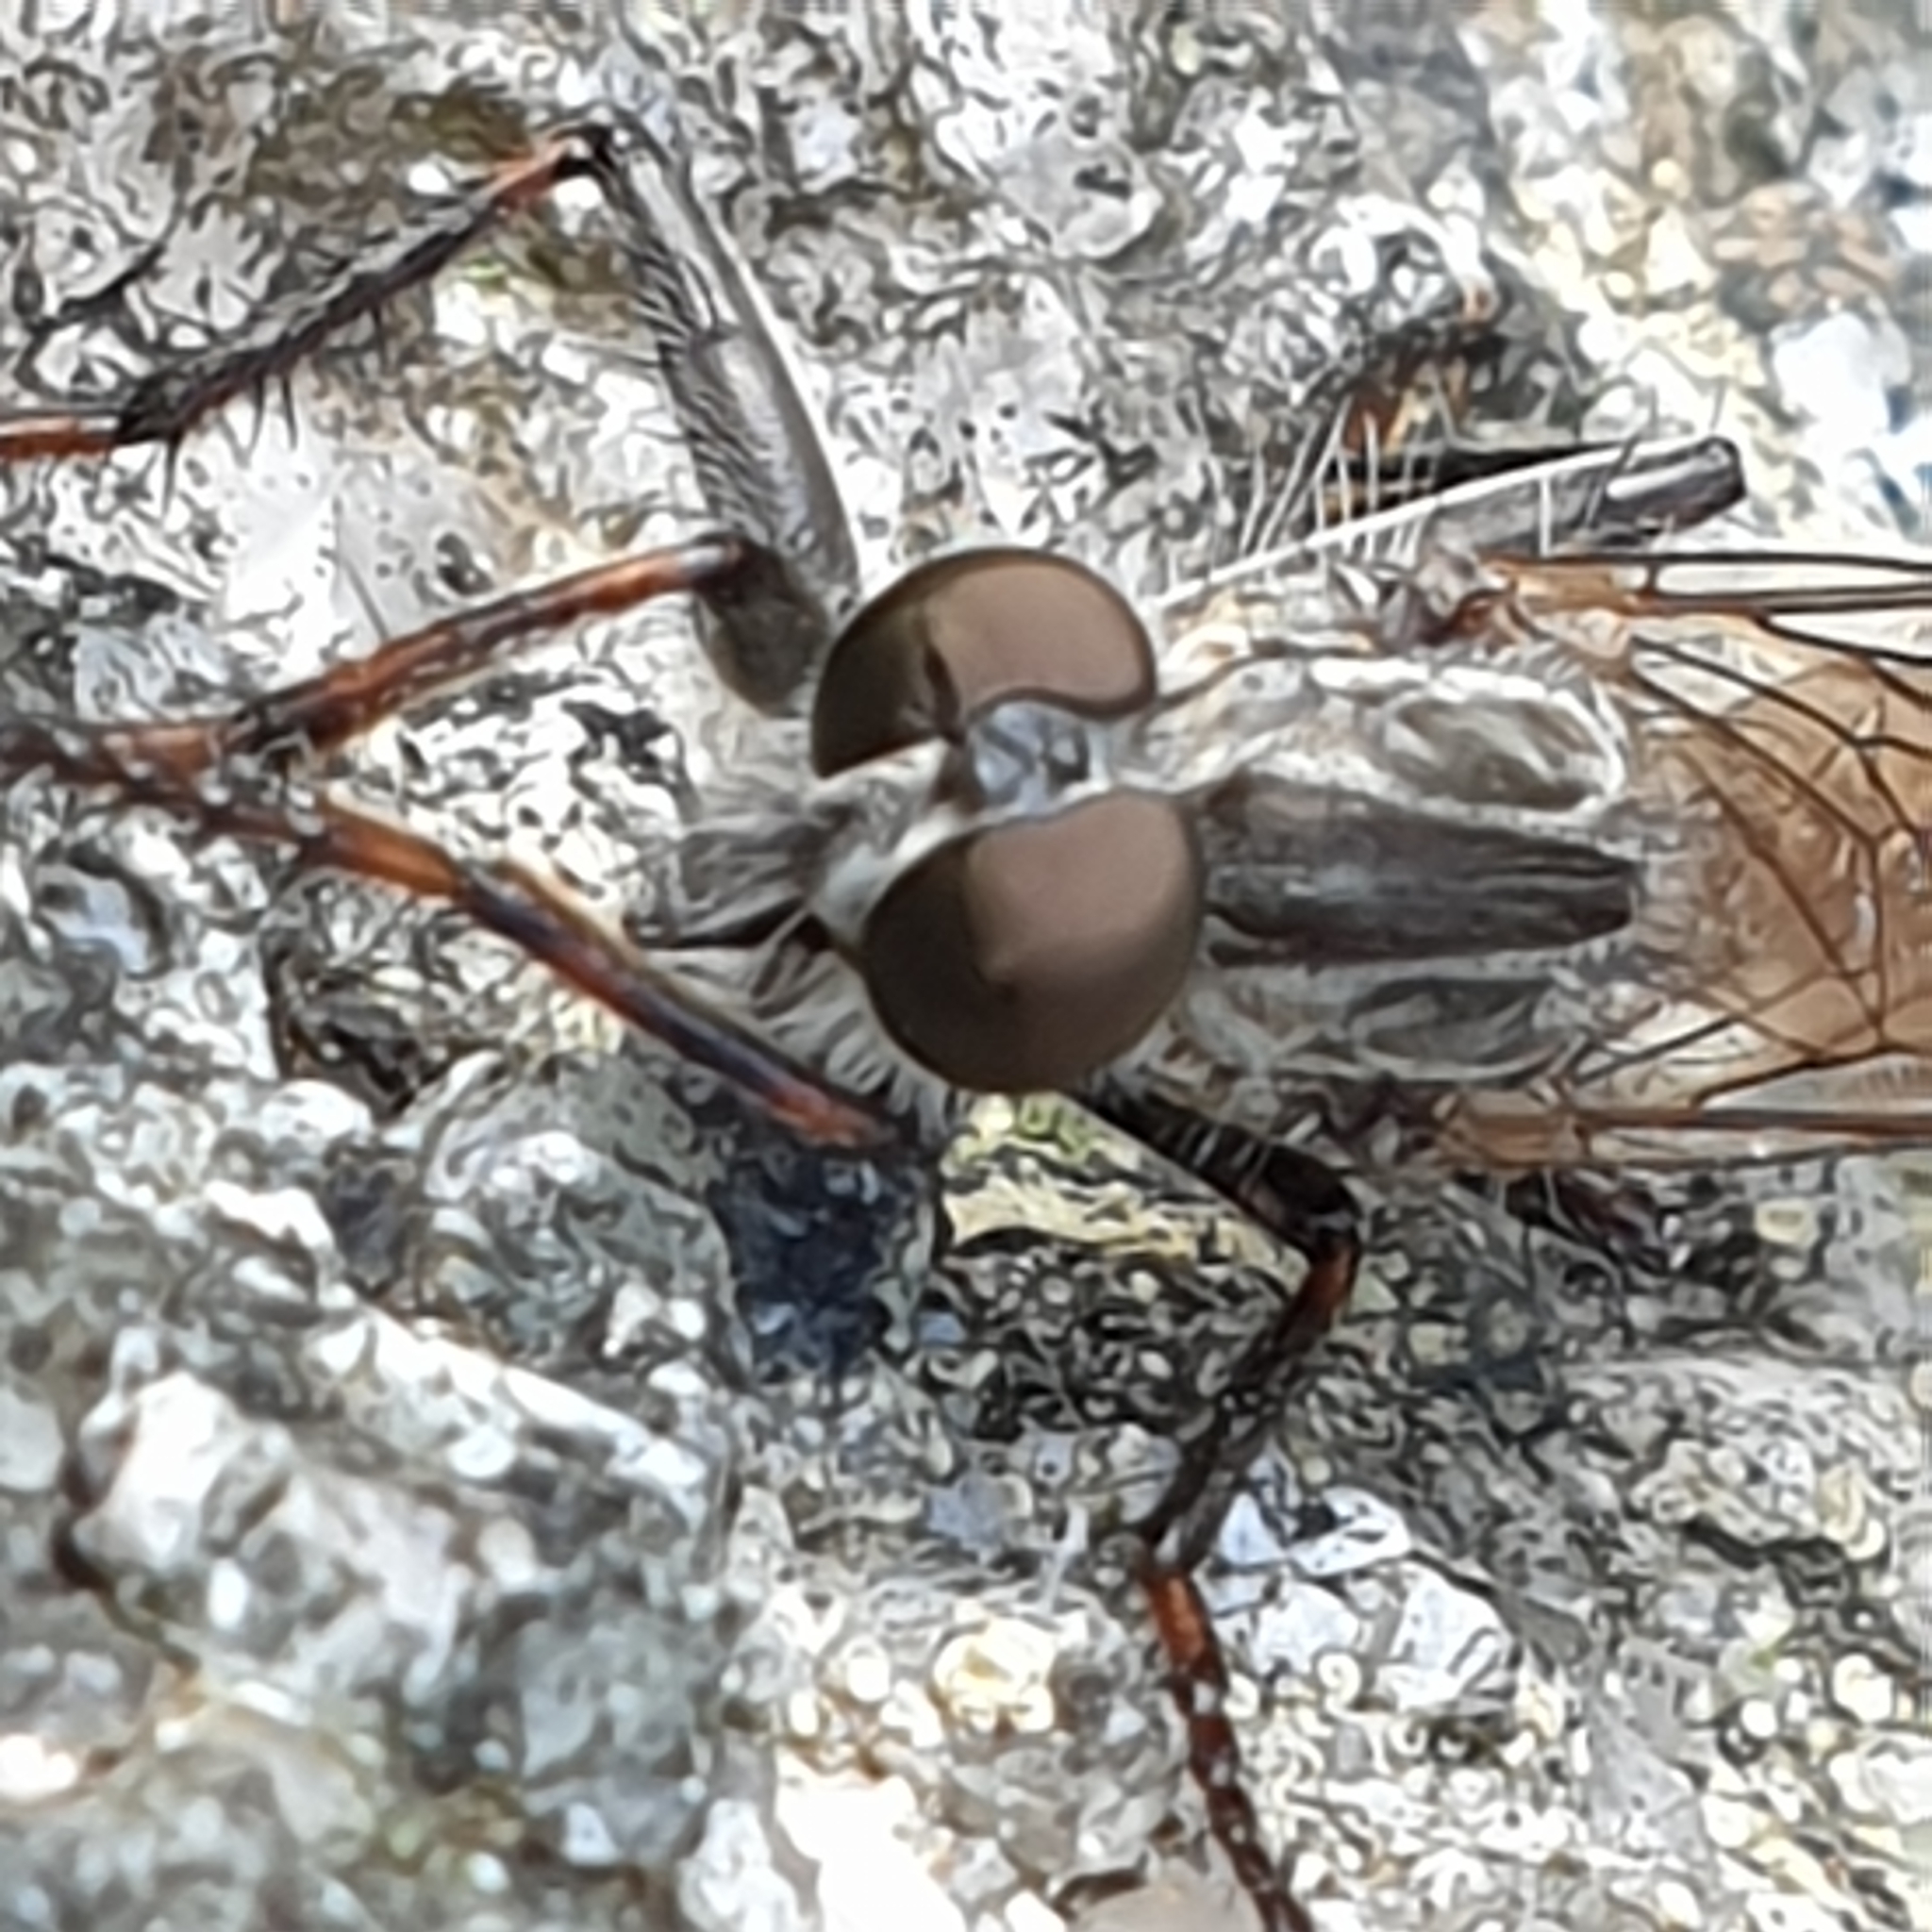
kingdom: Animalia
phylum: Arthropoda
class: Insecta
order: Diptera
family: Asilidae
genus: Machimus
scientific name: Machimus atricapillus
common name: Kite-tailed robberfly
